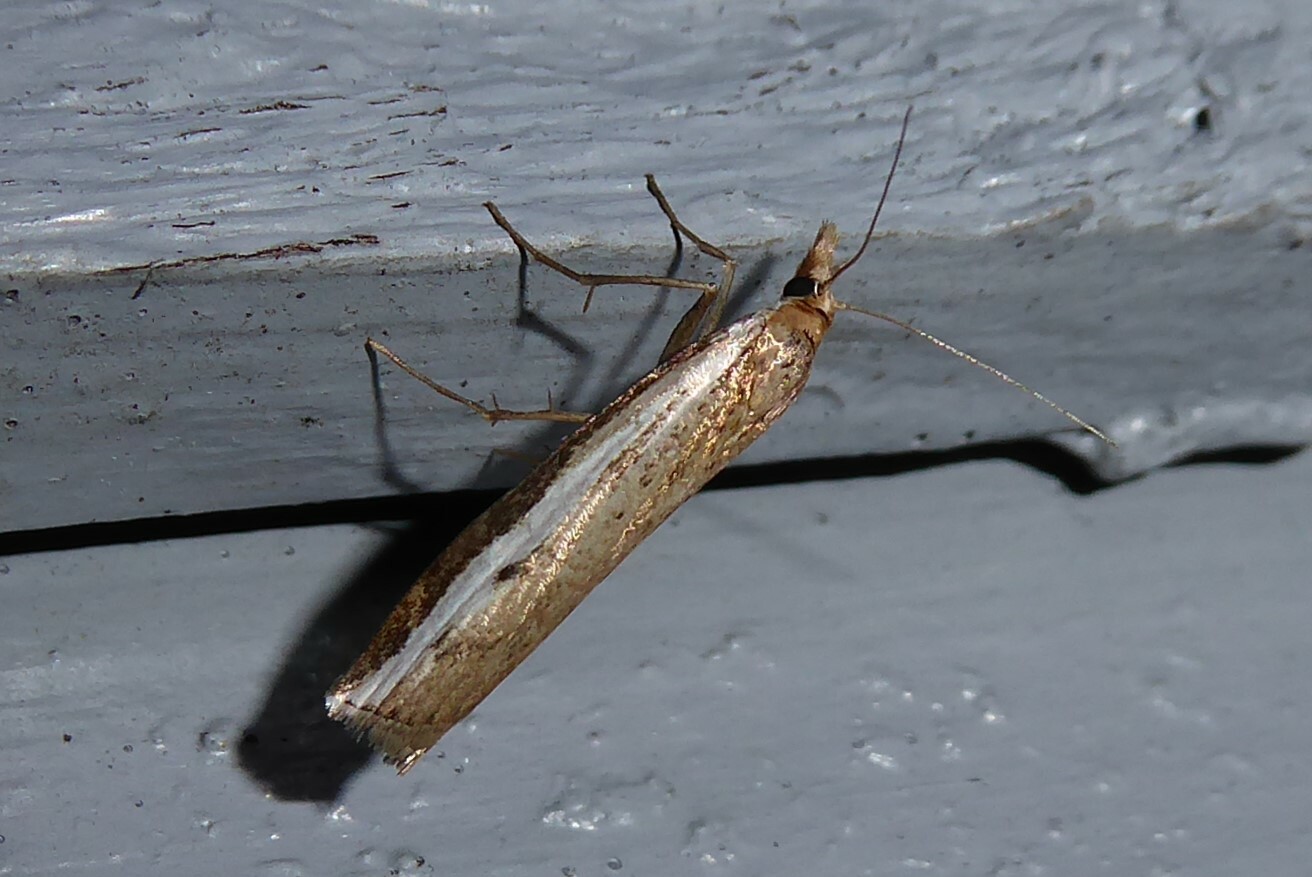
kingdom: Animalia
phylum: Arthropoda
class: Insecta
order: Lepidoptera
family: Crambidae
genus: Orocrambus
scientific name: Orocrambus flexuosellus
